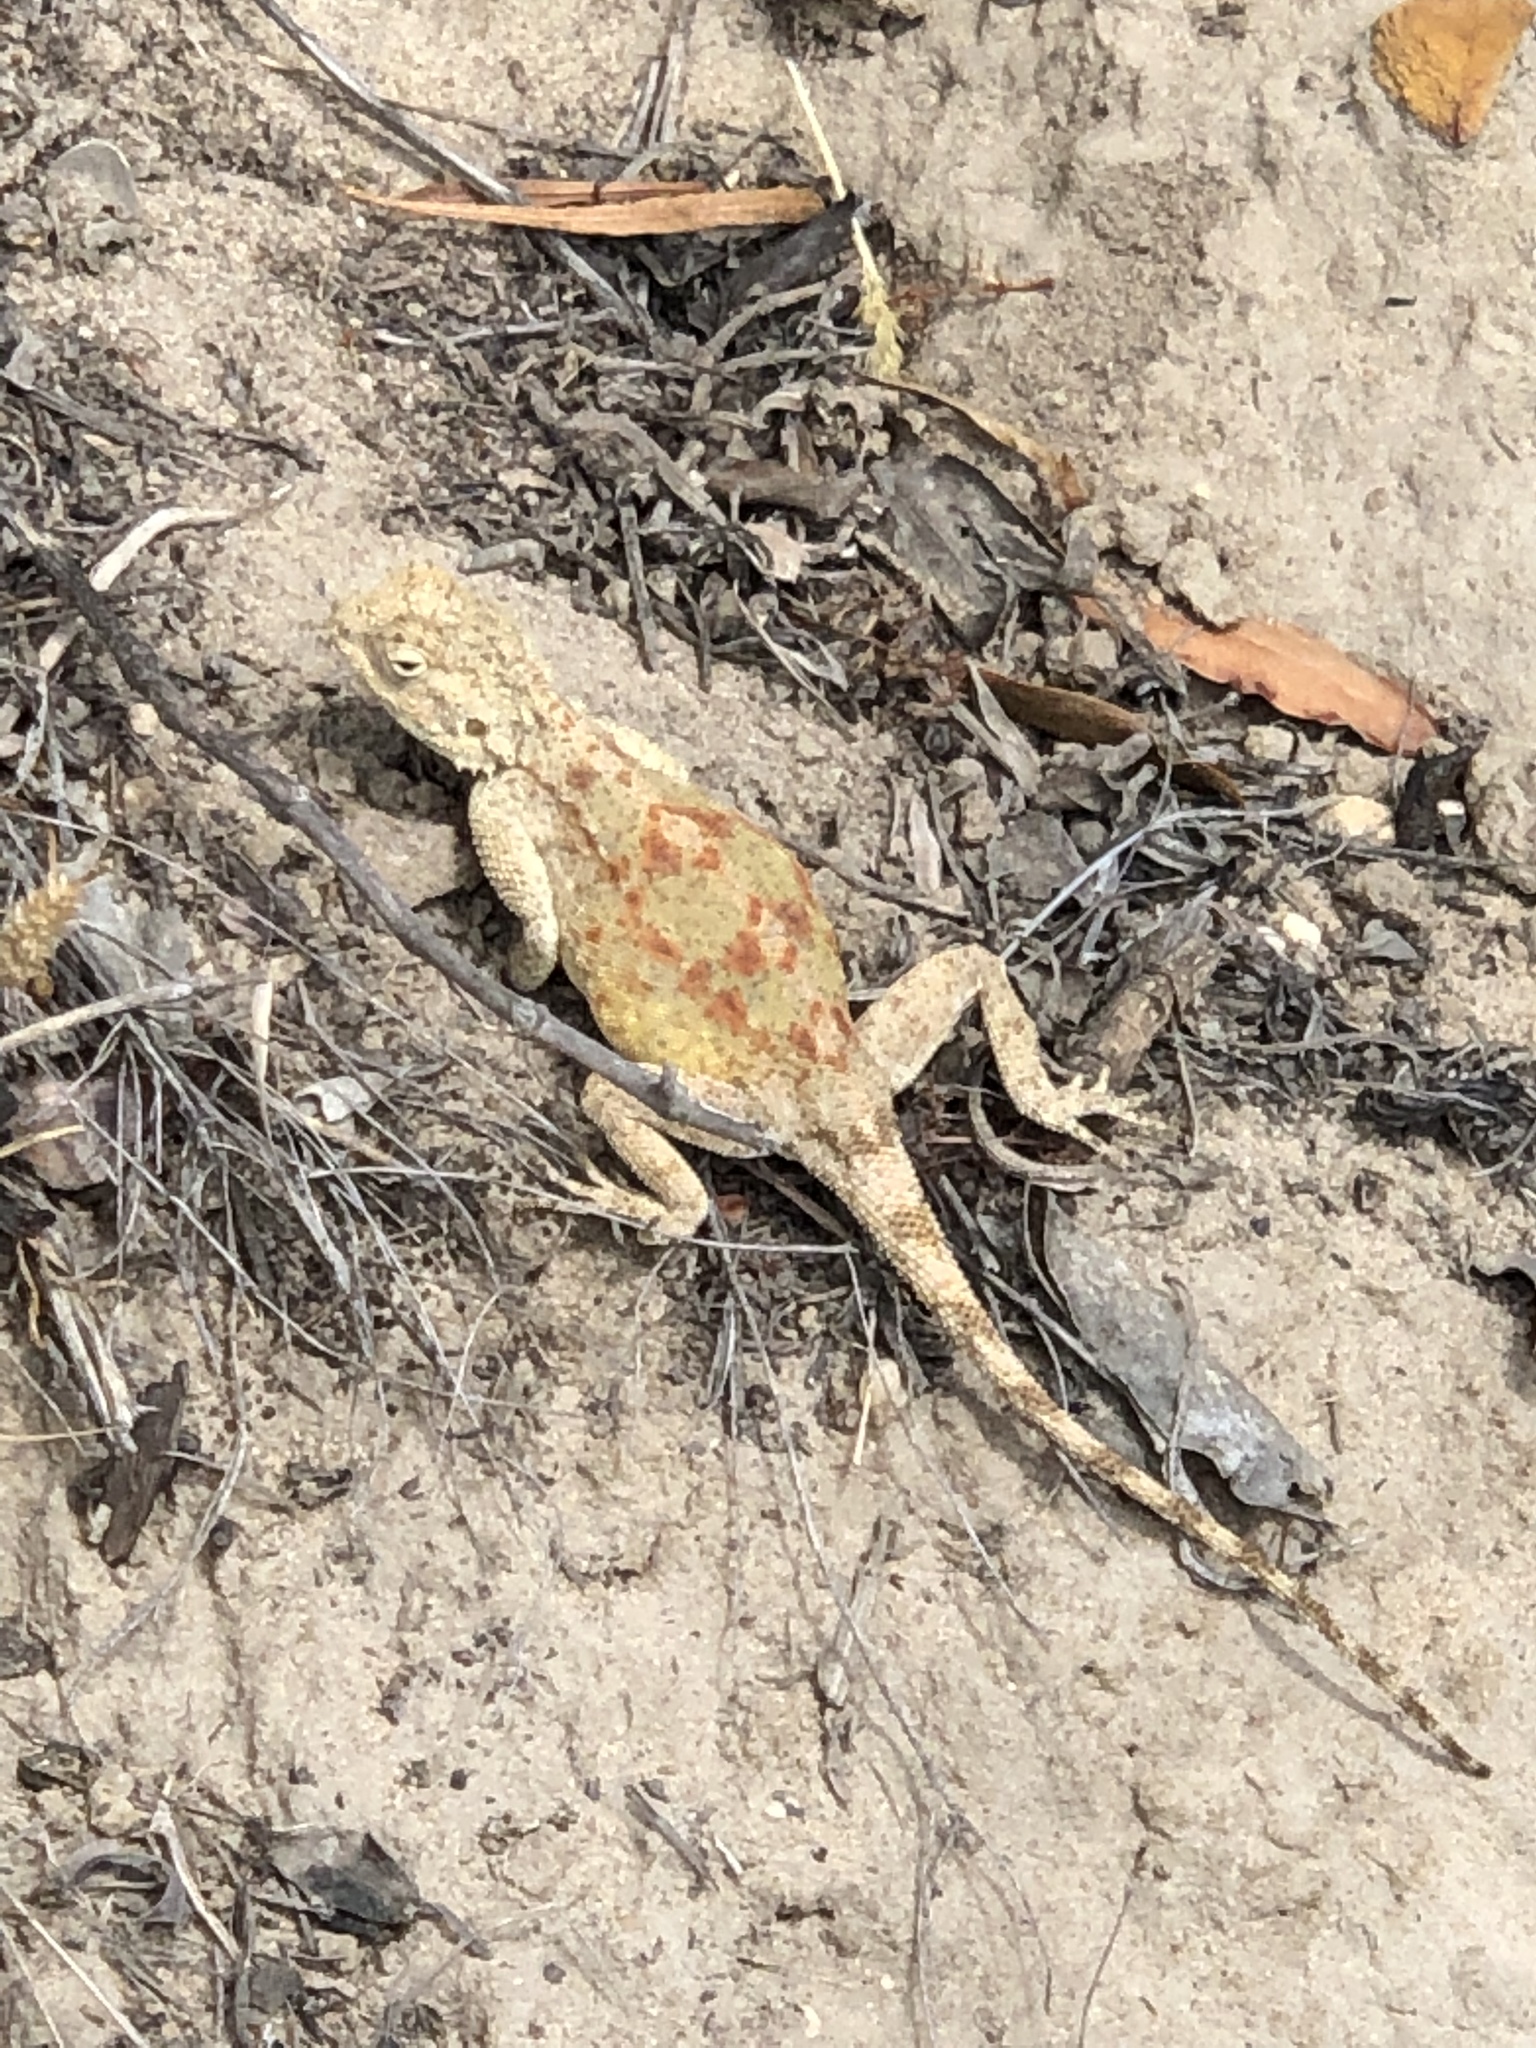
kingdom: Animalia
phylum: Chordata
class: Squamata
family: Agamidae
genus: Agama
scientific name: Agama atra
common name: Southern african rock agama
